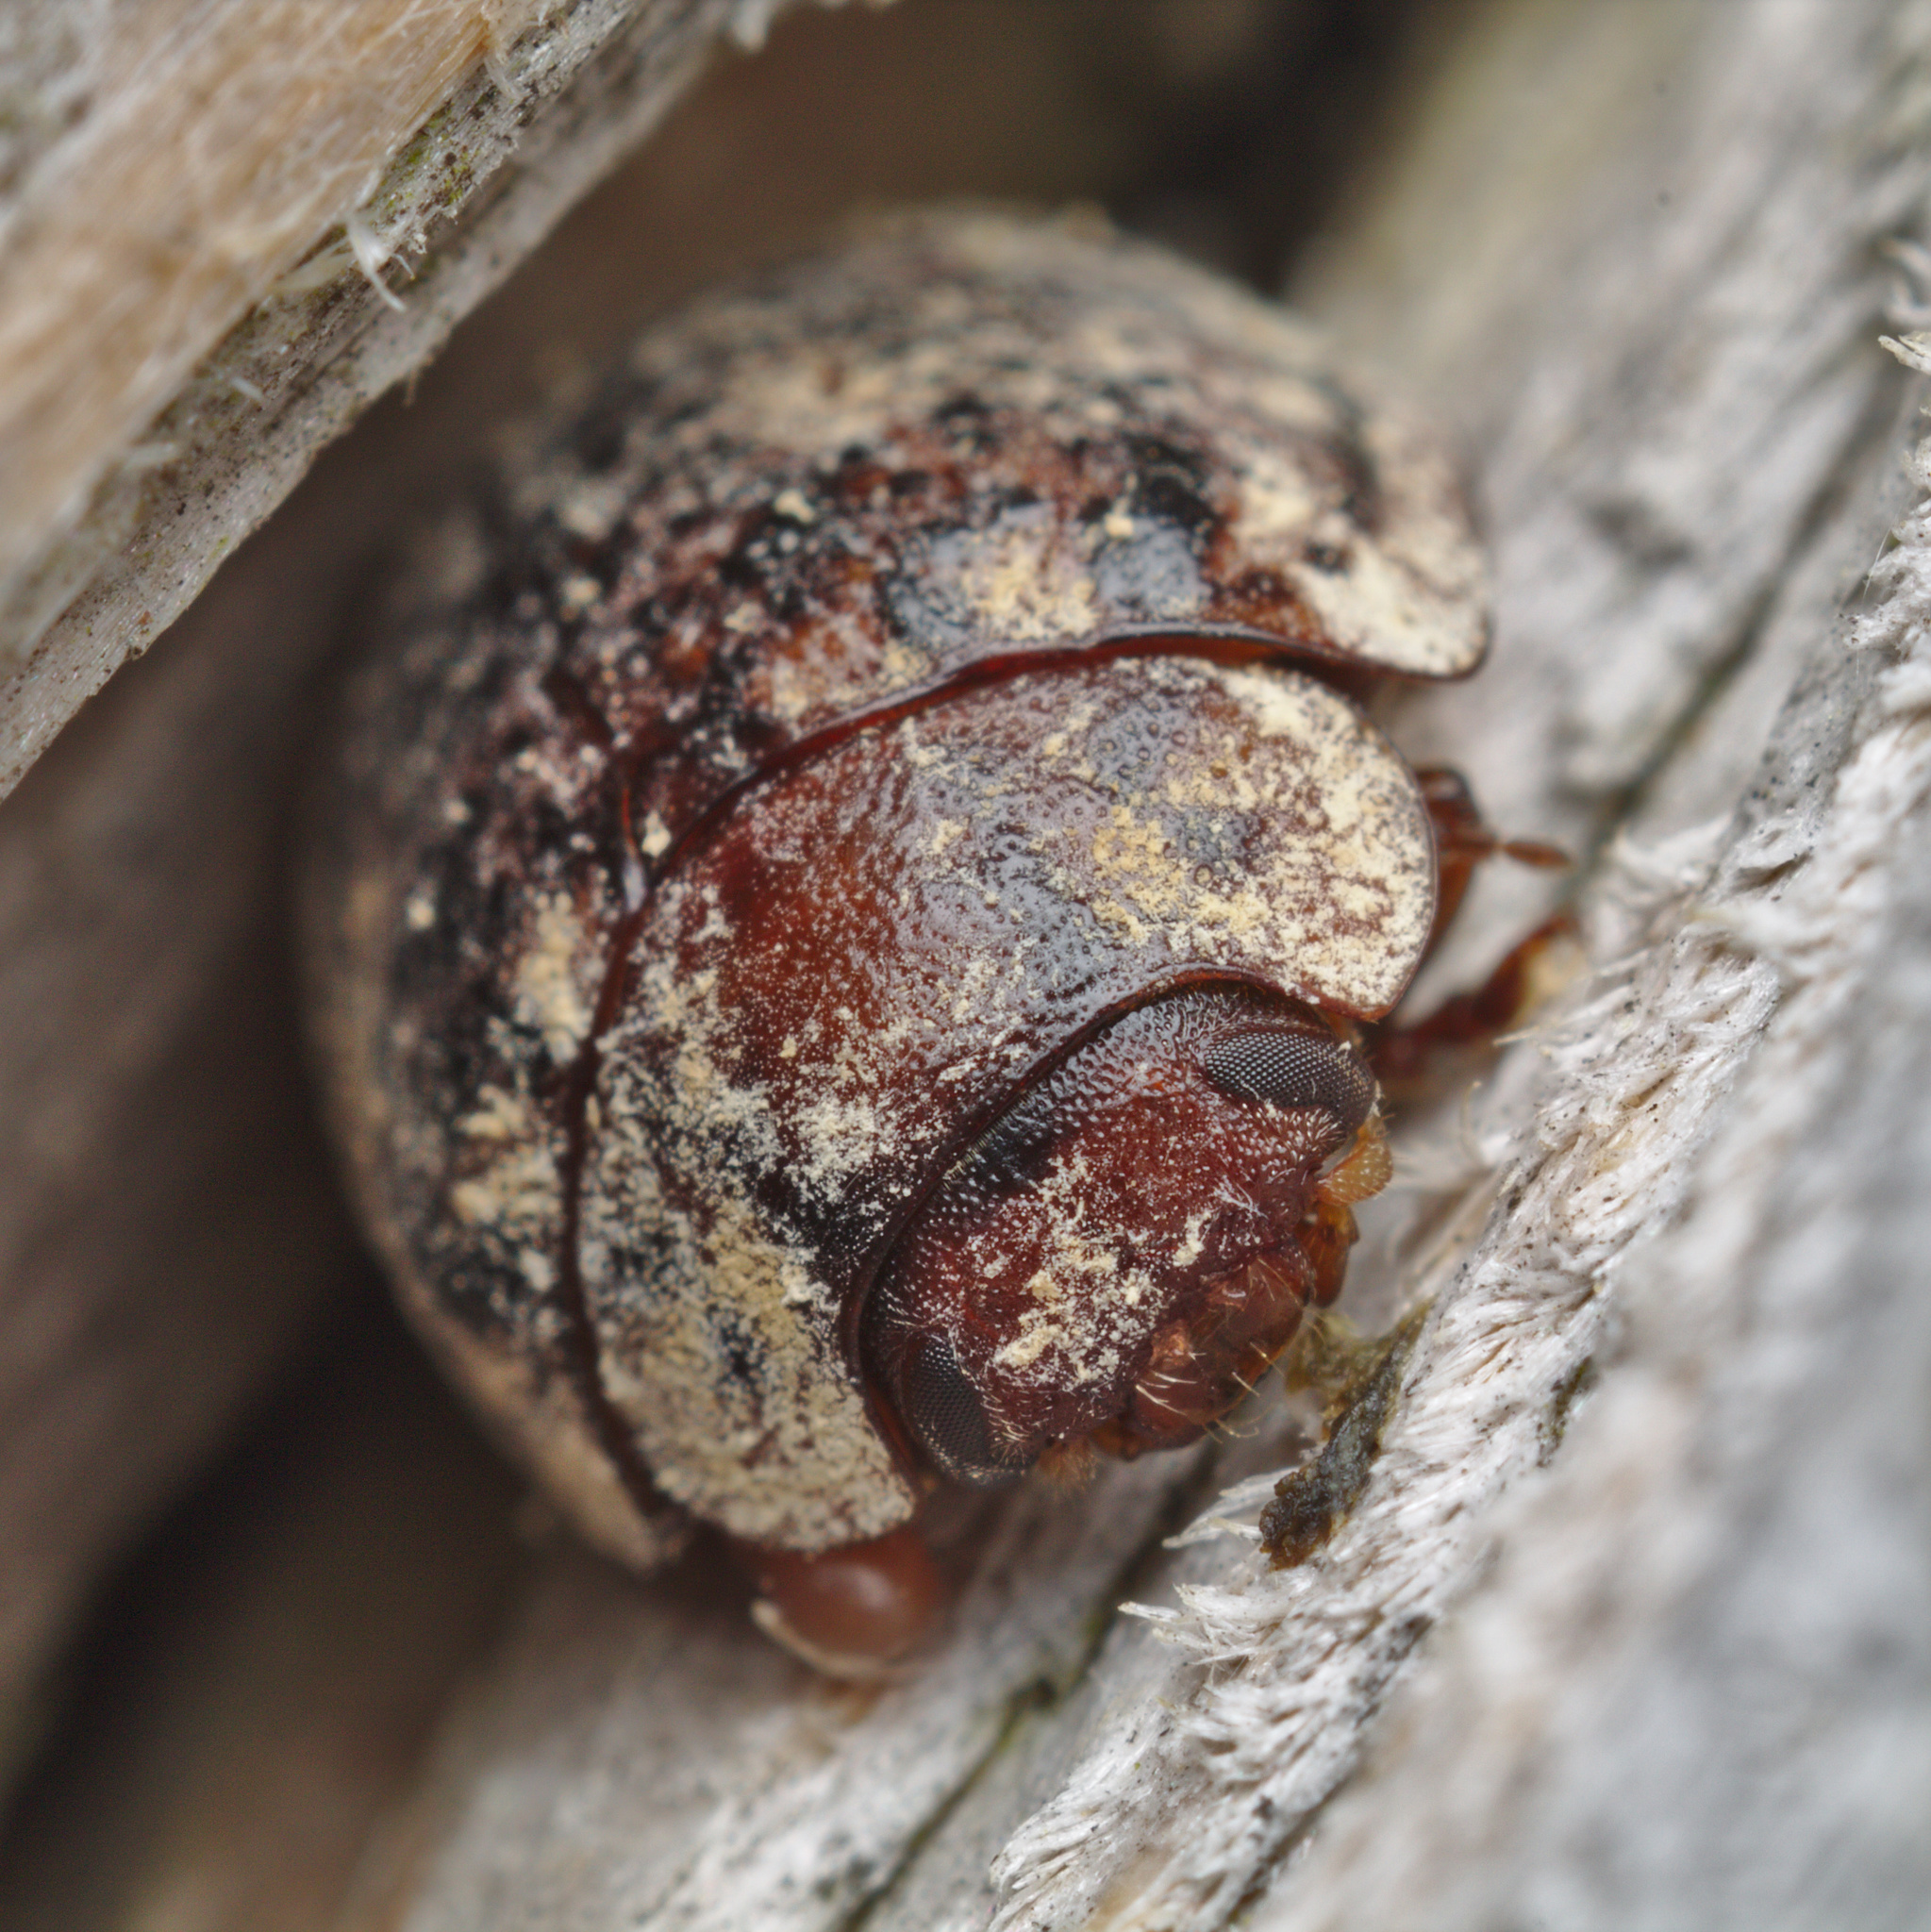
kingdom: Animalia
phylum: Arthropoda
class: Insecta
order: Coleoptera
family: Chrysomelidae
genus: Trachymela
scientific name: Trachymela sloanei
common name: Australian tortoise beetle
